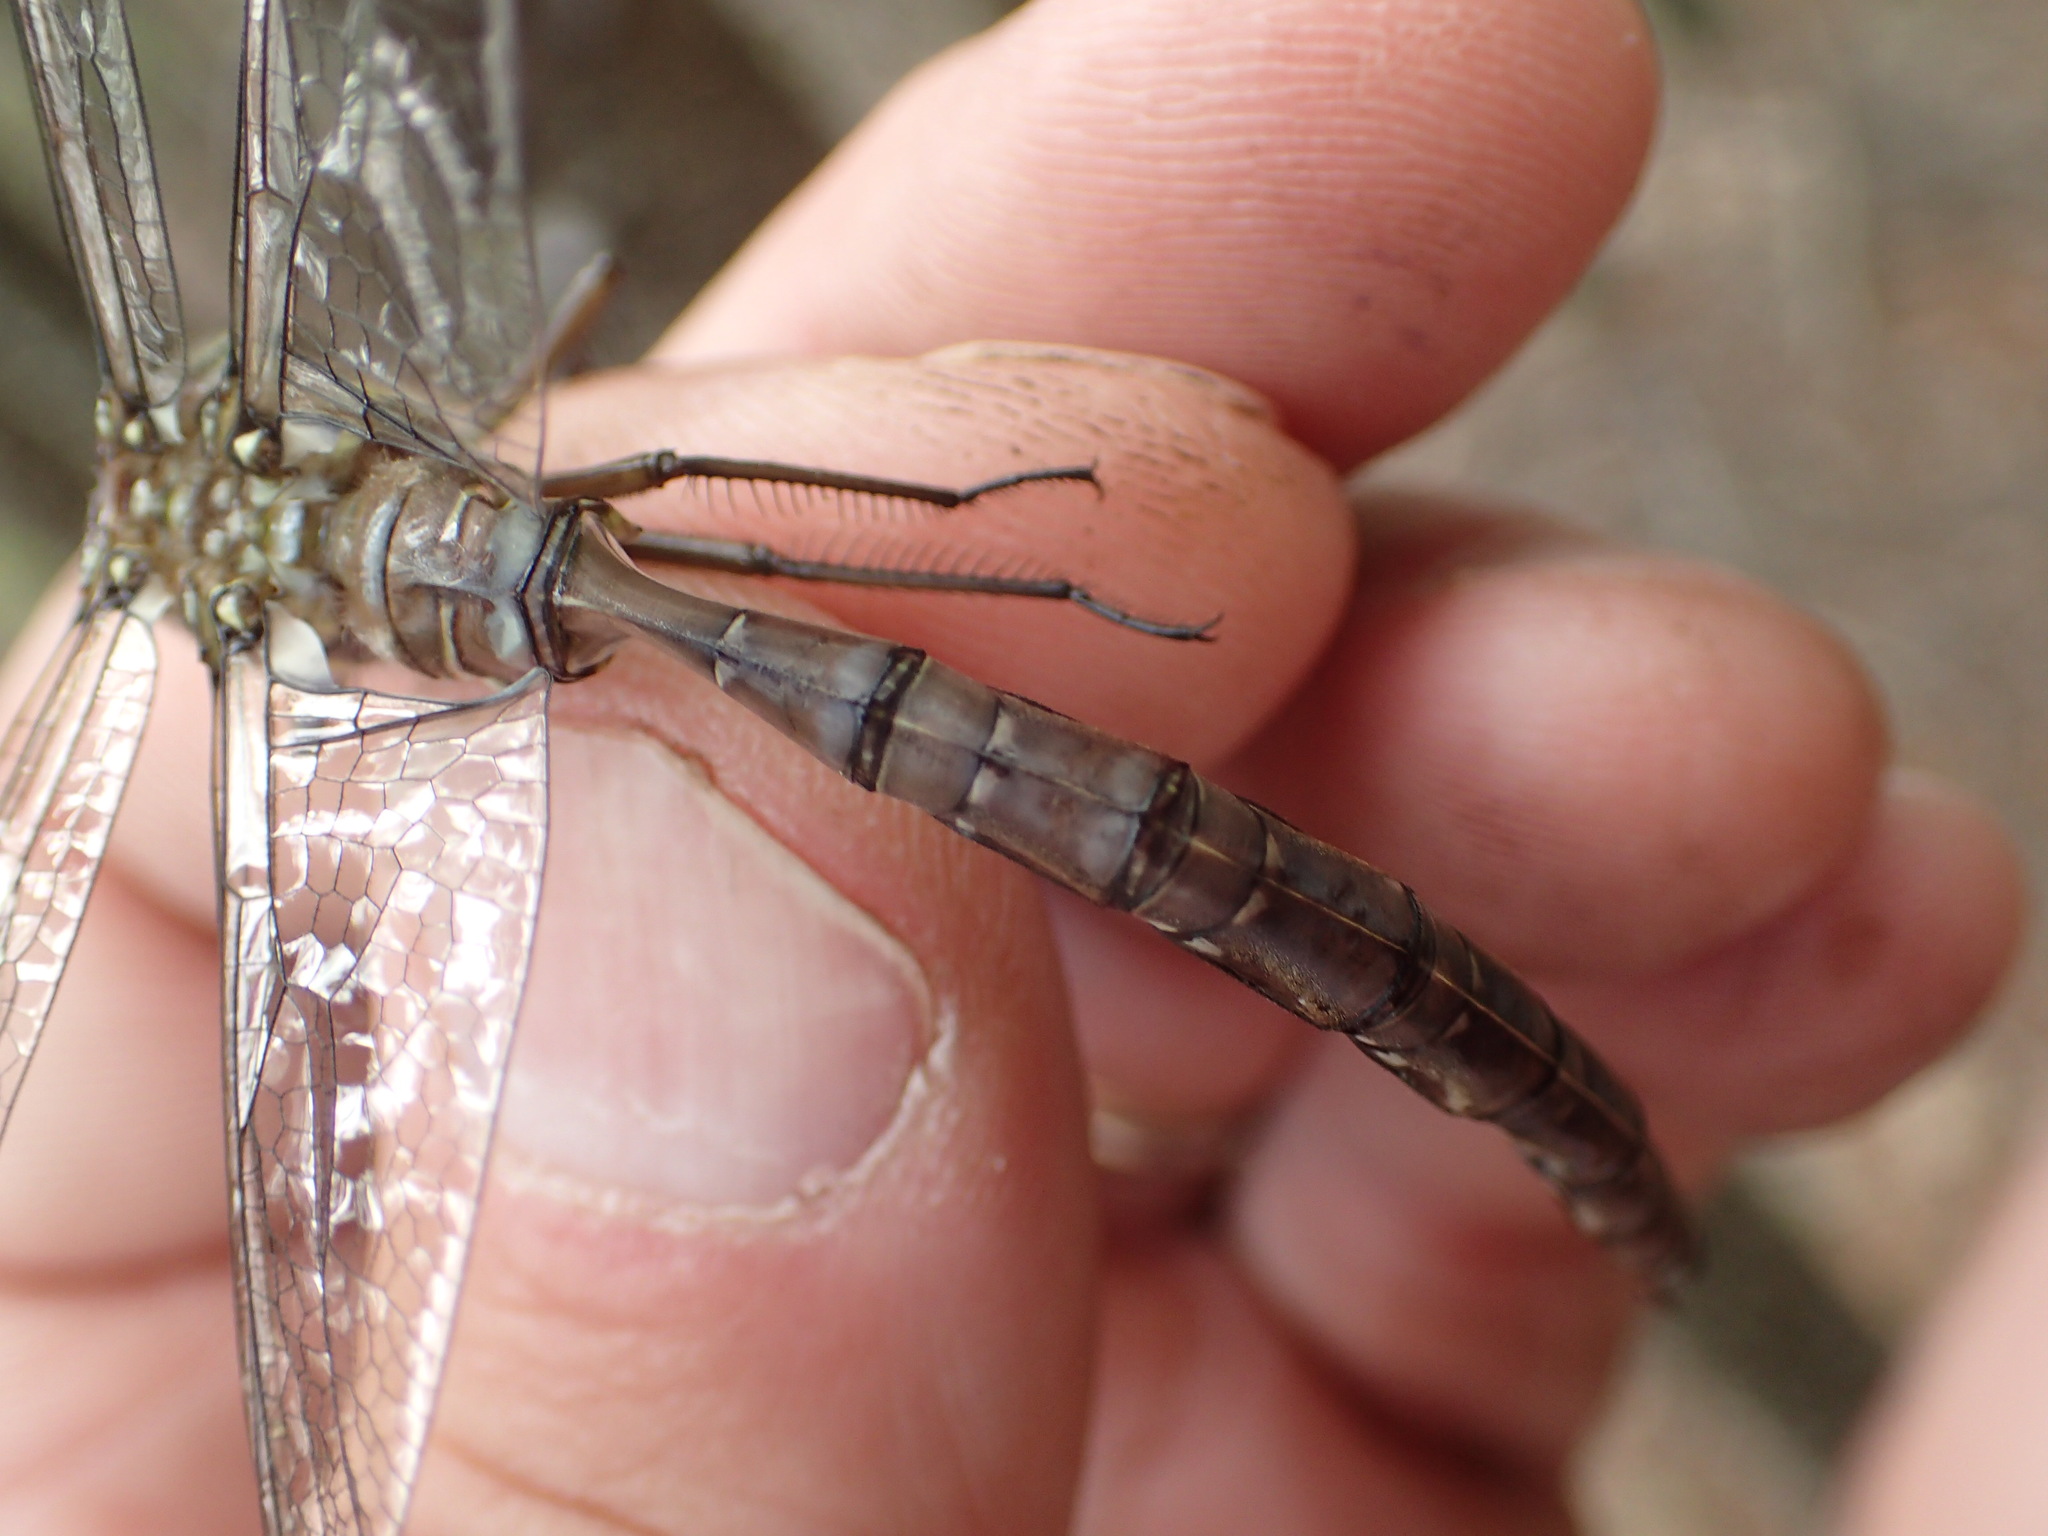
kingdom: Animalia
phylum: Arthropoda
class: Insecta
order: Odonata
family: Aeshnidae
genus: Aeshna
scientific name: Aeshna umbrosa
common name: Shadow darner
